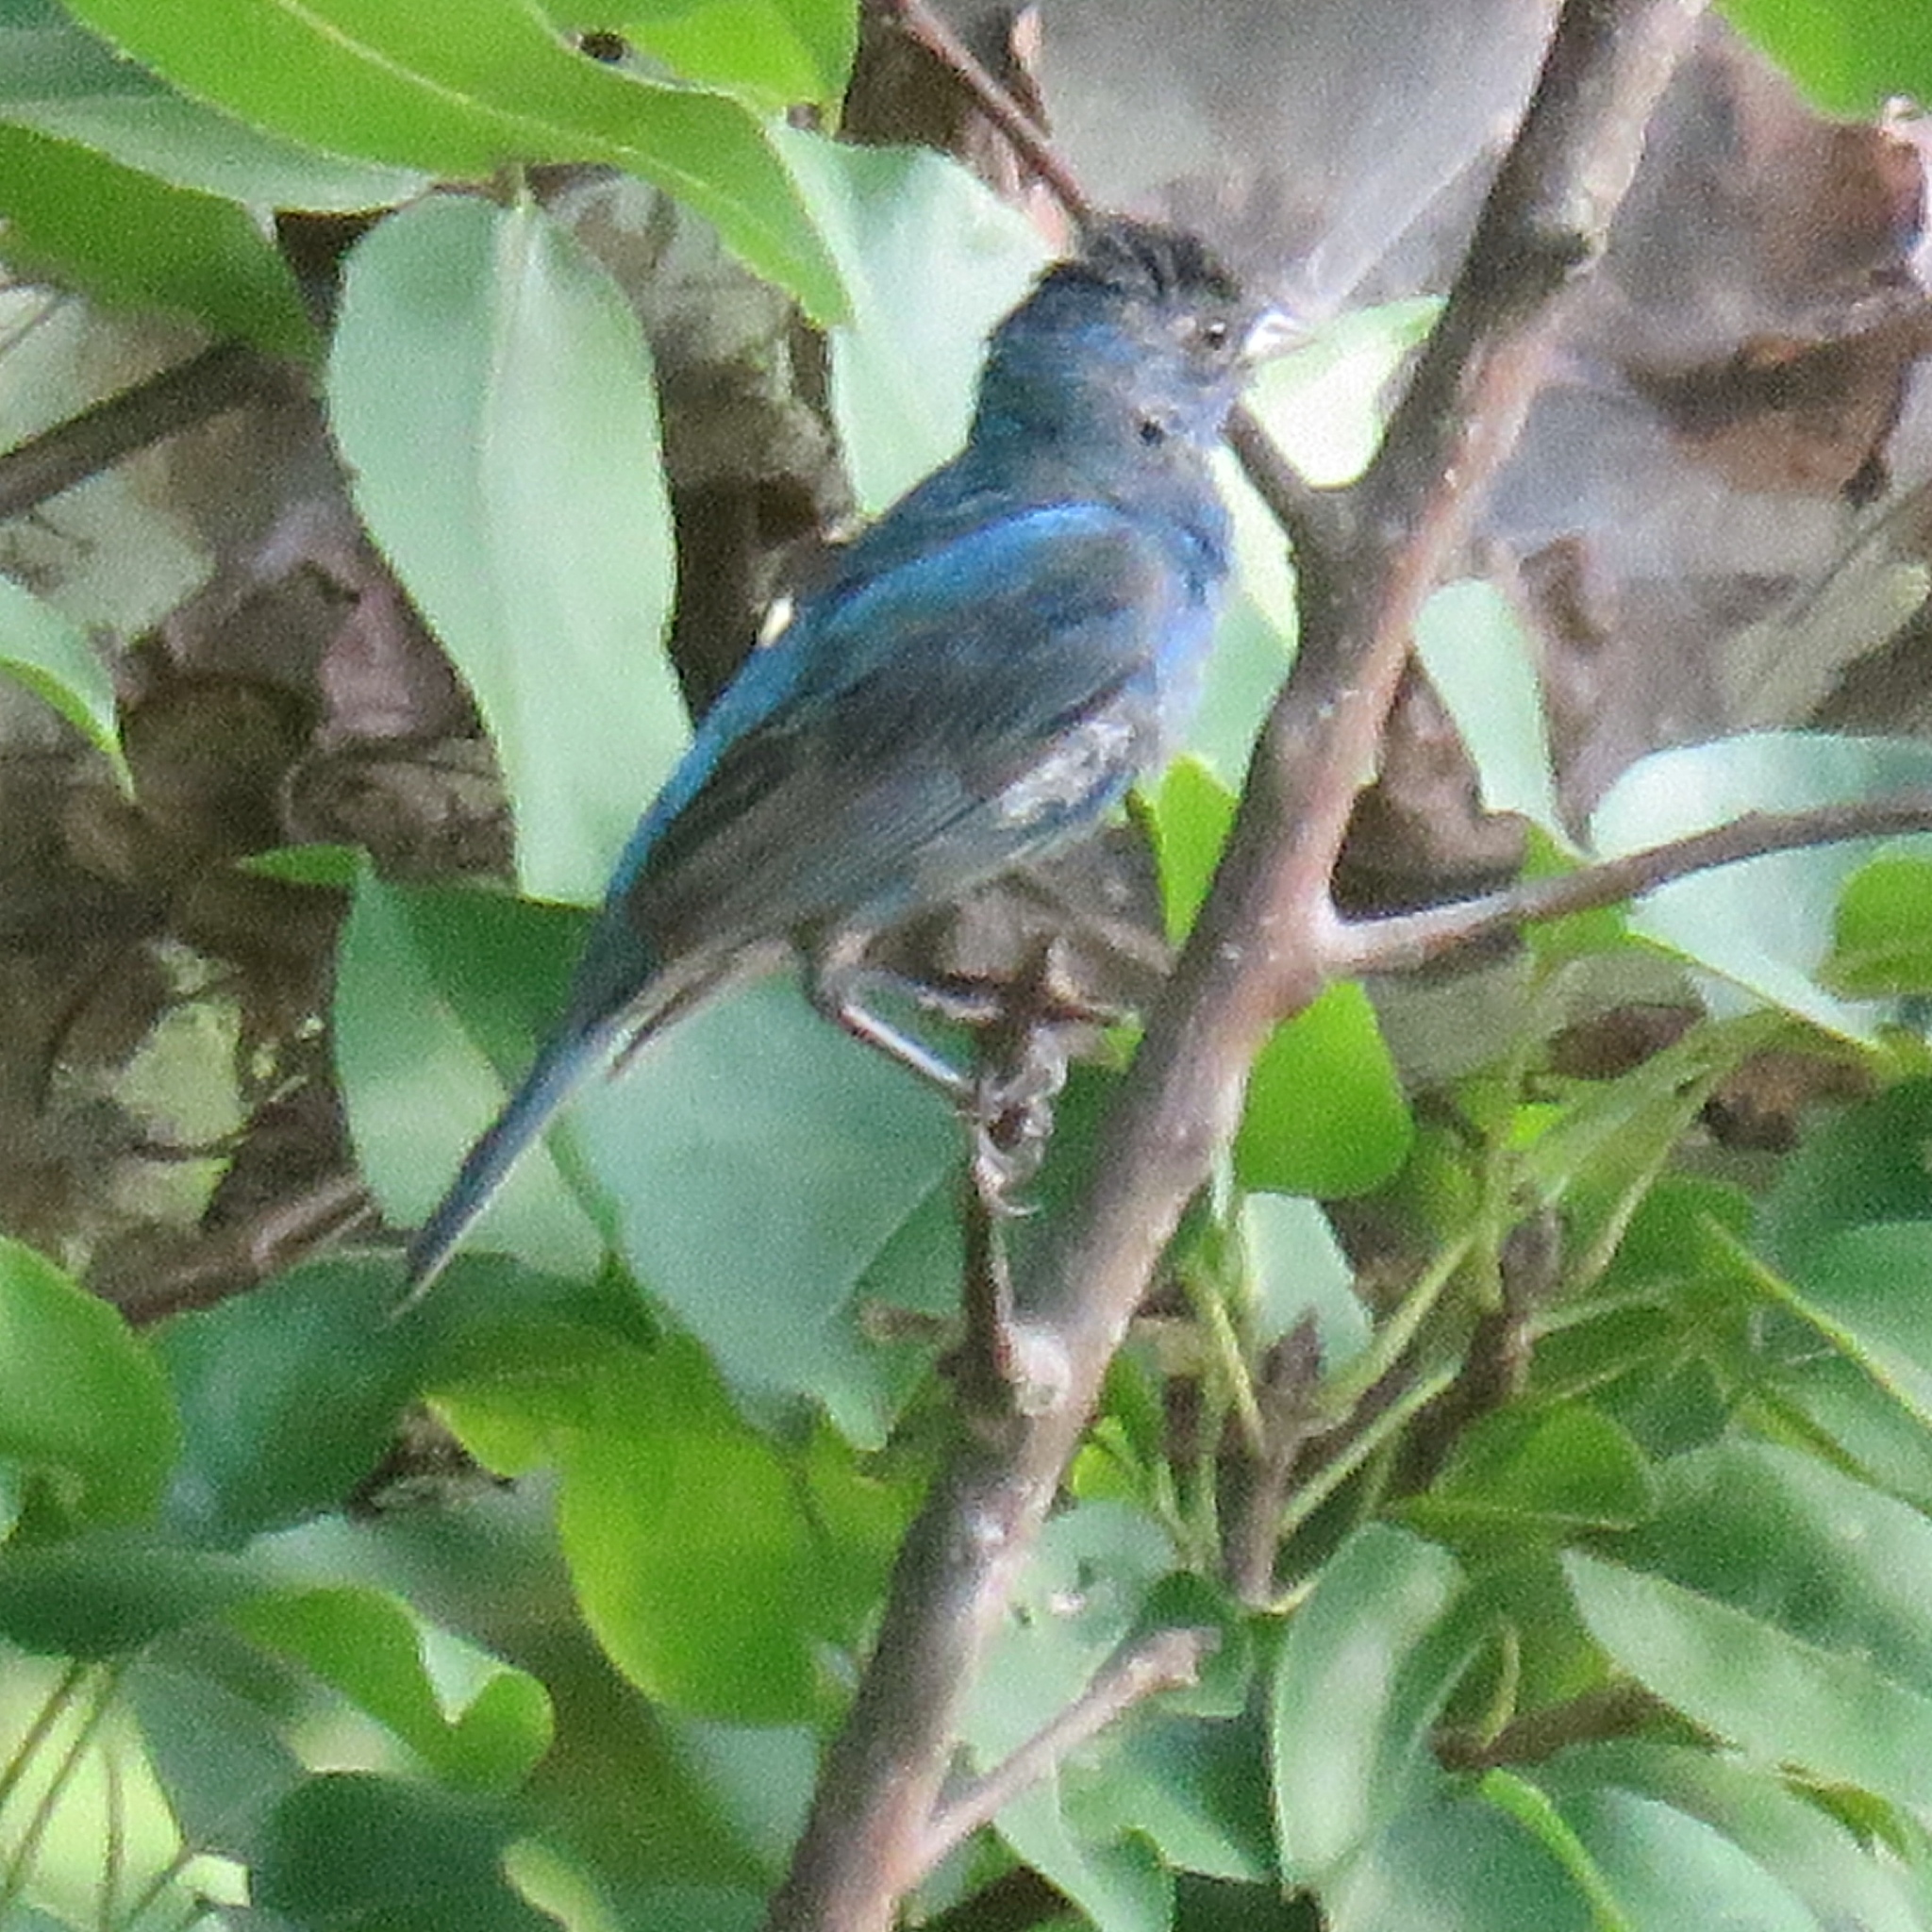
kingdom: Animalia
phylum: Chordata
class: Aves
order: Passeriformes
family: Cardinalidae
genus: Passerina
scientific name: Passerina cyanea
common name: Indigo bunting
